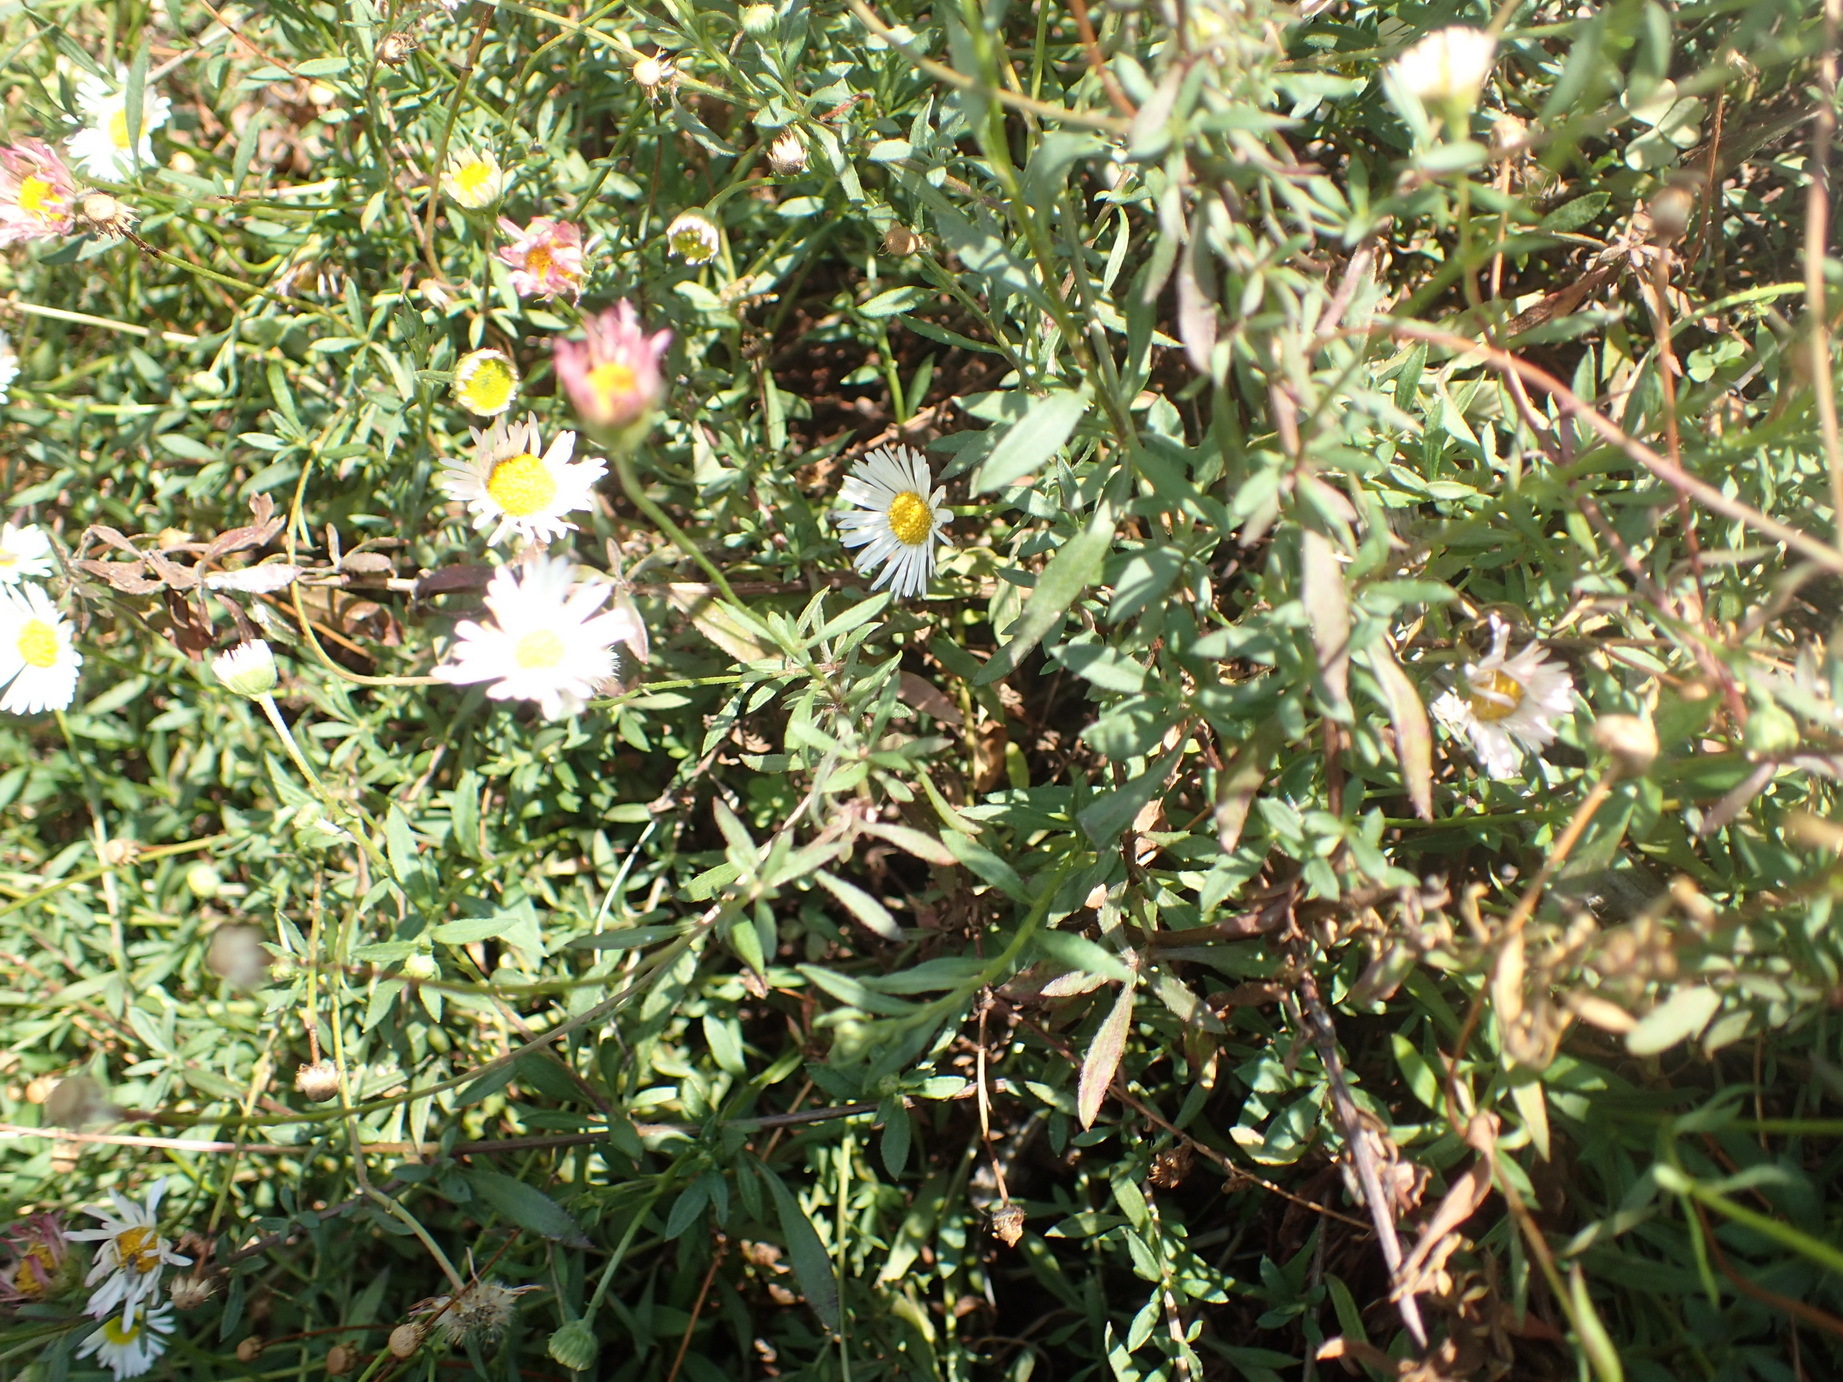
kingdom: Plantae
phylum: Tracheophyta
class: Magnoliopsida
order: Asterales
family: Asteraceae
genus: Erigeron
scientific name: Erigeron karvinskianus
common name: Mexican fleabane
